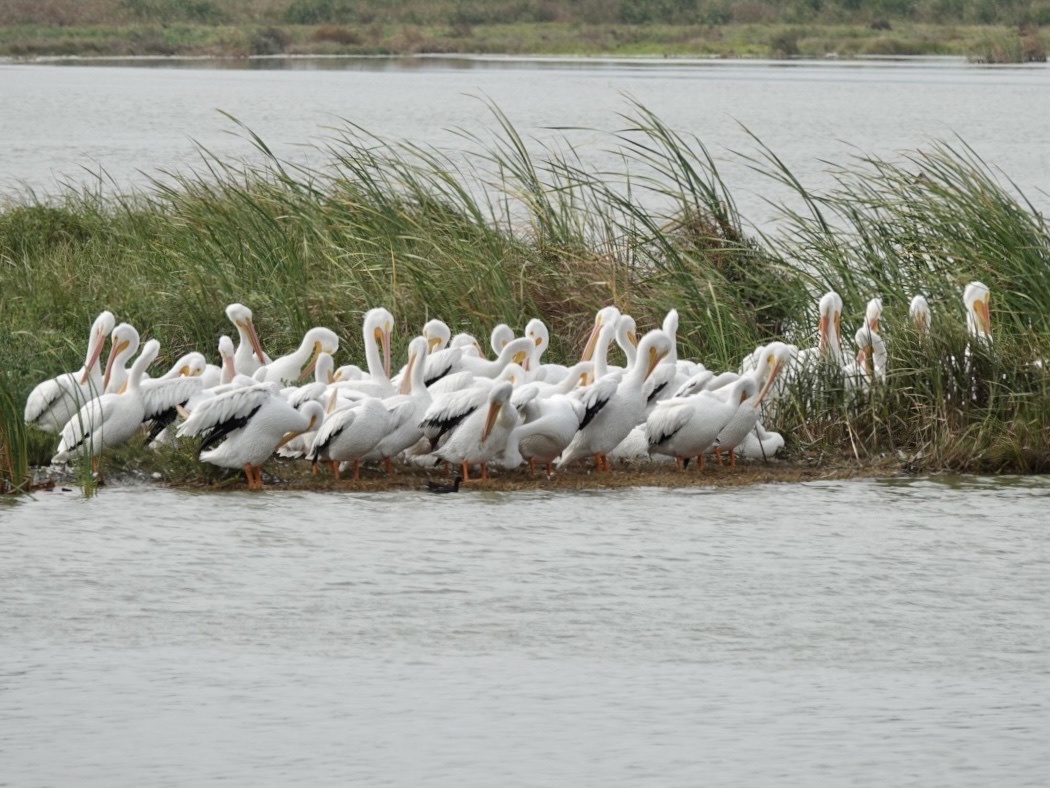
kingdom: Animalia
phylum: Chordata
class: Aves
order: Pelecaniformes
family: Pelecanidae
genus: Pelecanus
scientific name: Pelecanus erythrorhynchos
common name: American white pelican
